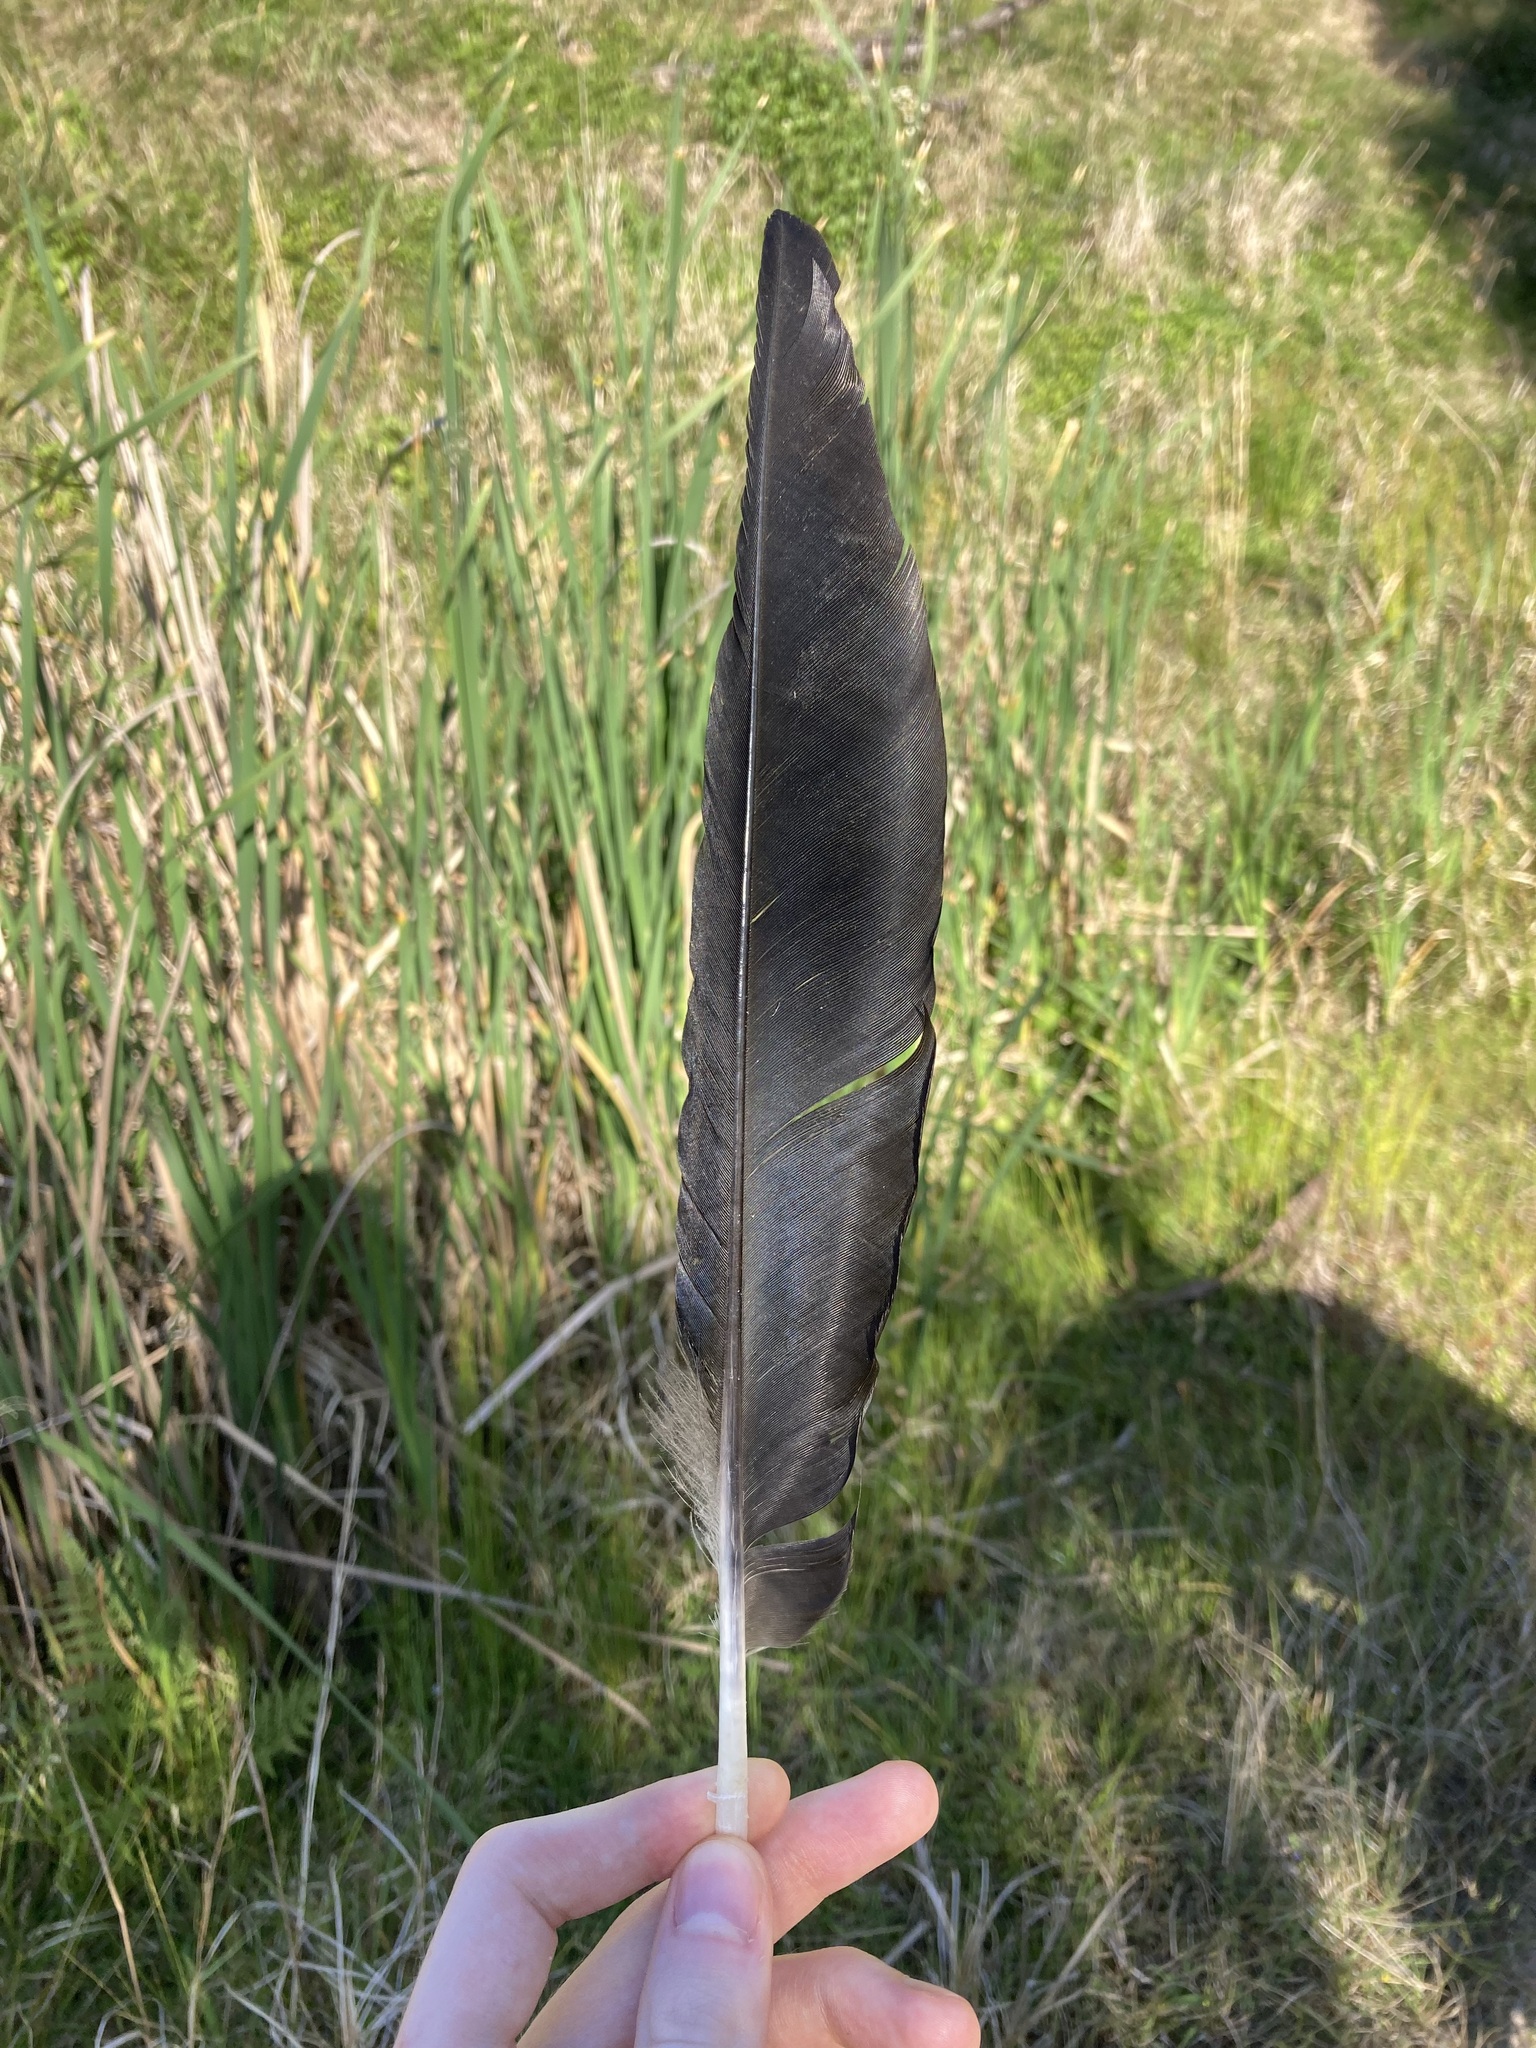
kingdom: Animalia
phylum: Chordata
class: Aves
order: Passeriformes
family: Corvidae
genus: Corvus
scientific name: Corvus coronoides
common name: Australian raven
